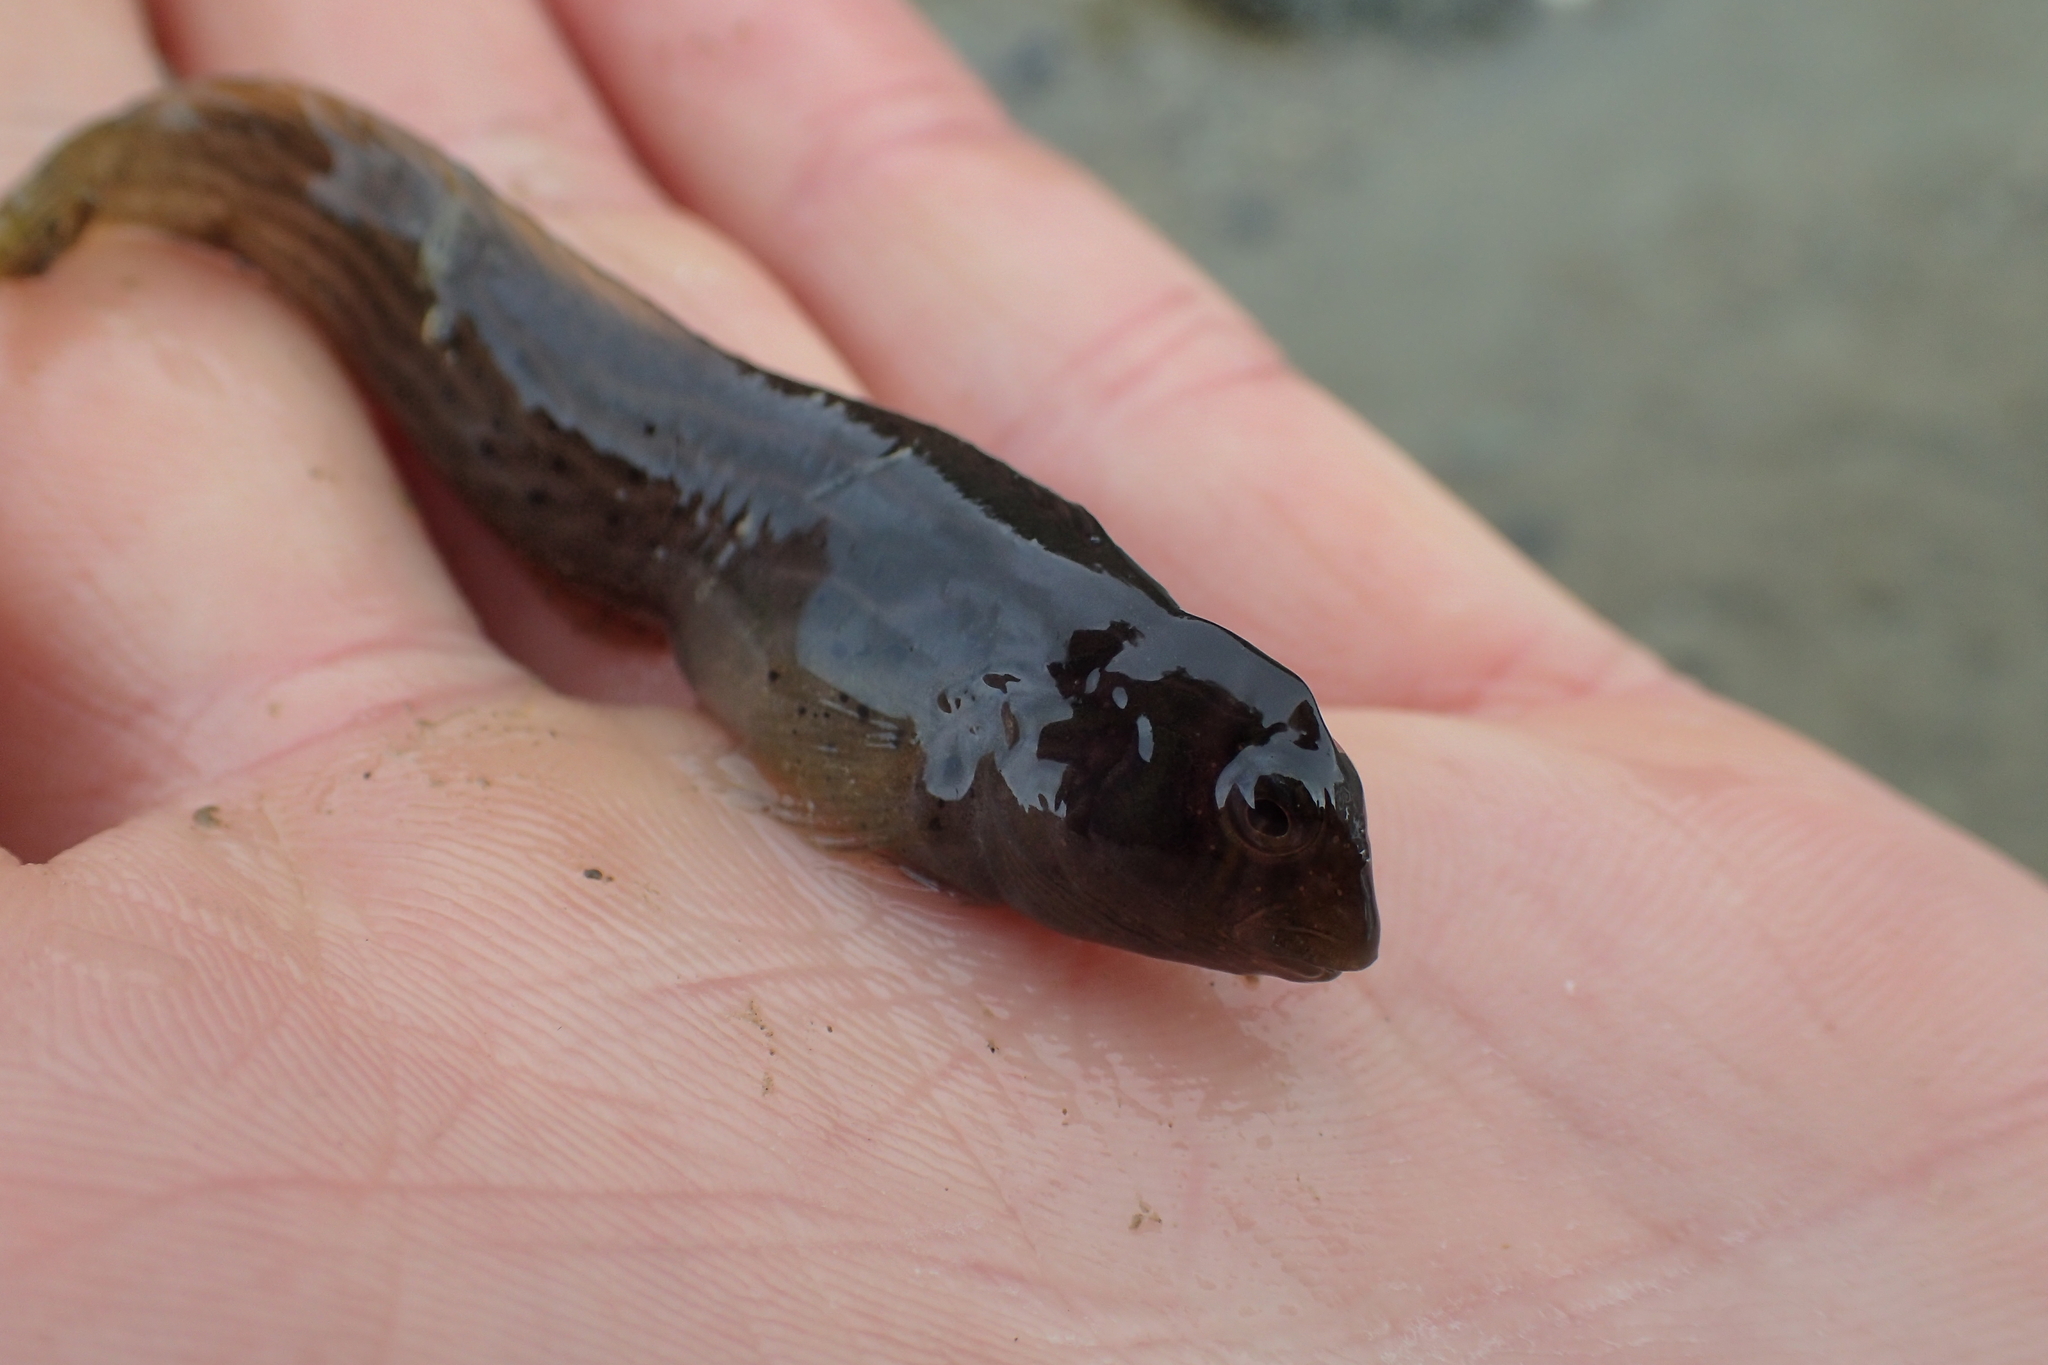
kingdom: Animalia
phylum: Chordata
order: Perciformes
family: Blenniidae
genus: Omobranchus
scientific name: Omobranchus anolius
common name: Oyster blenny
